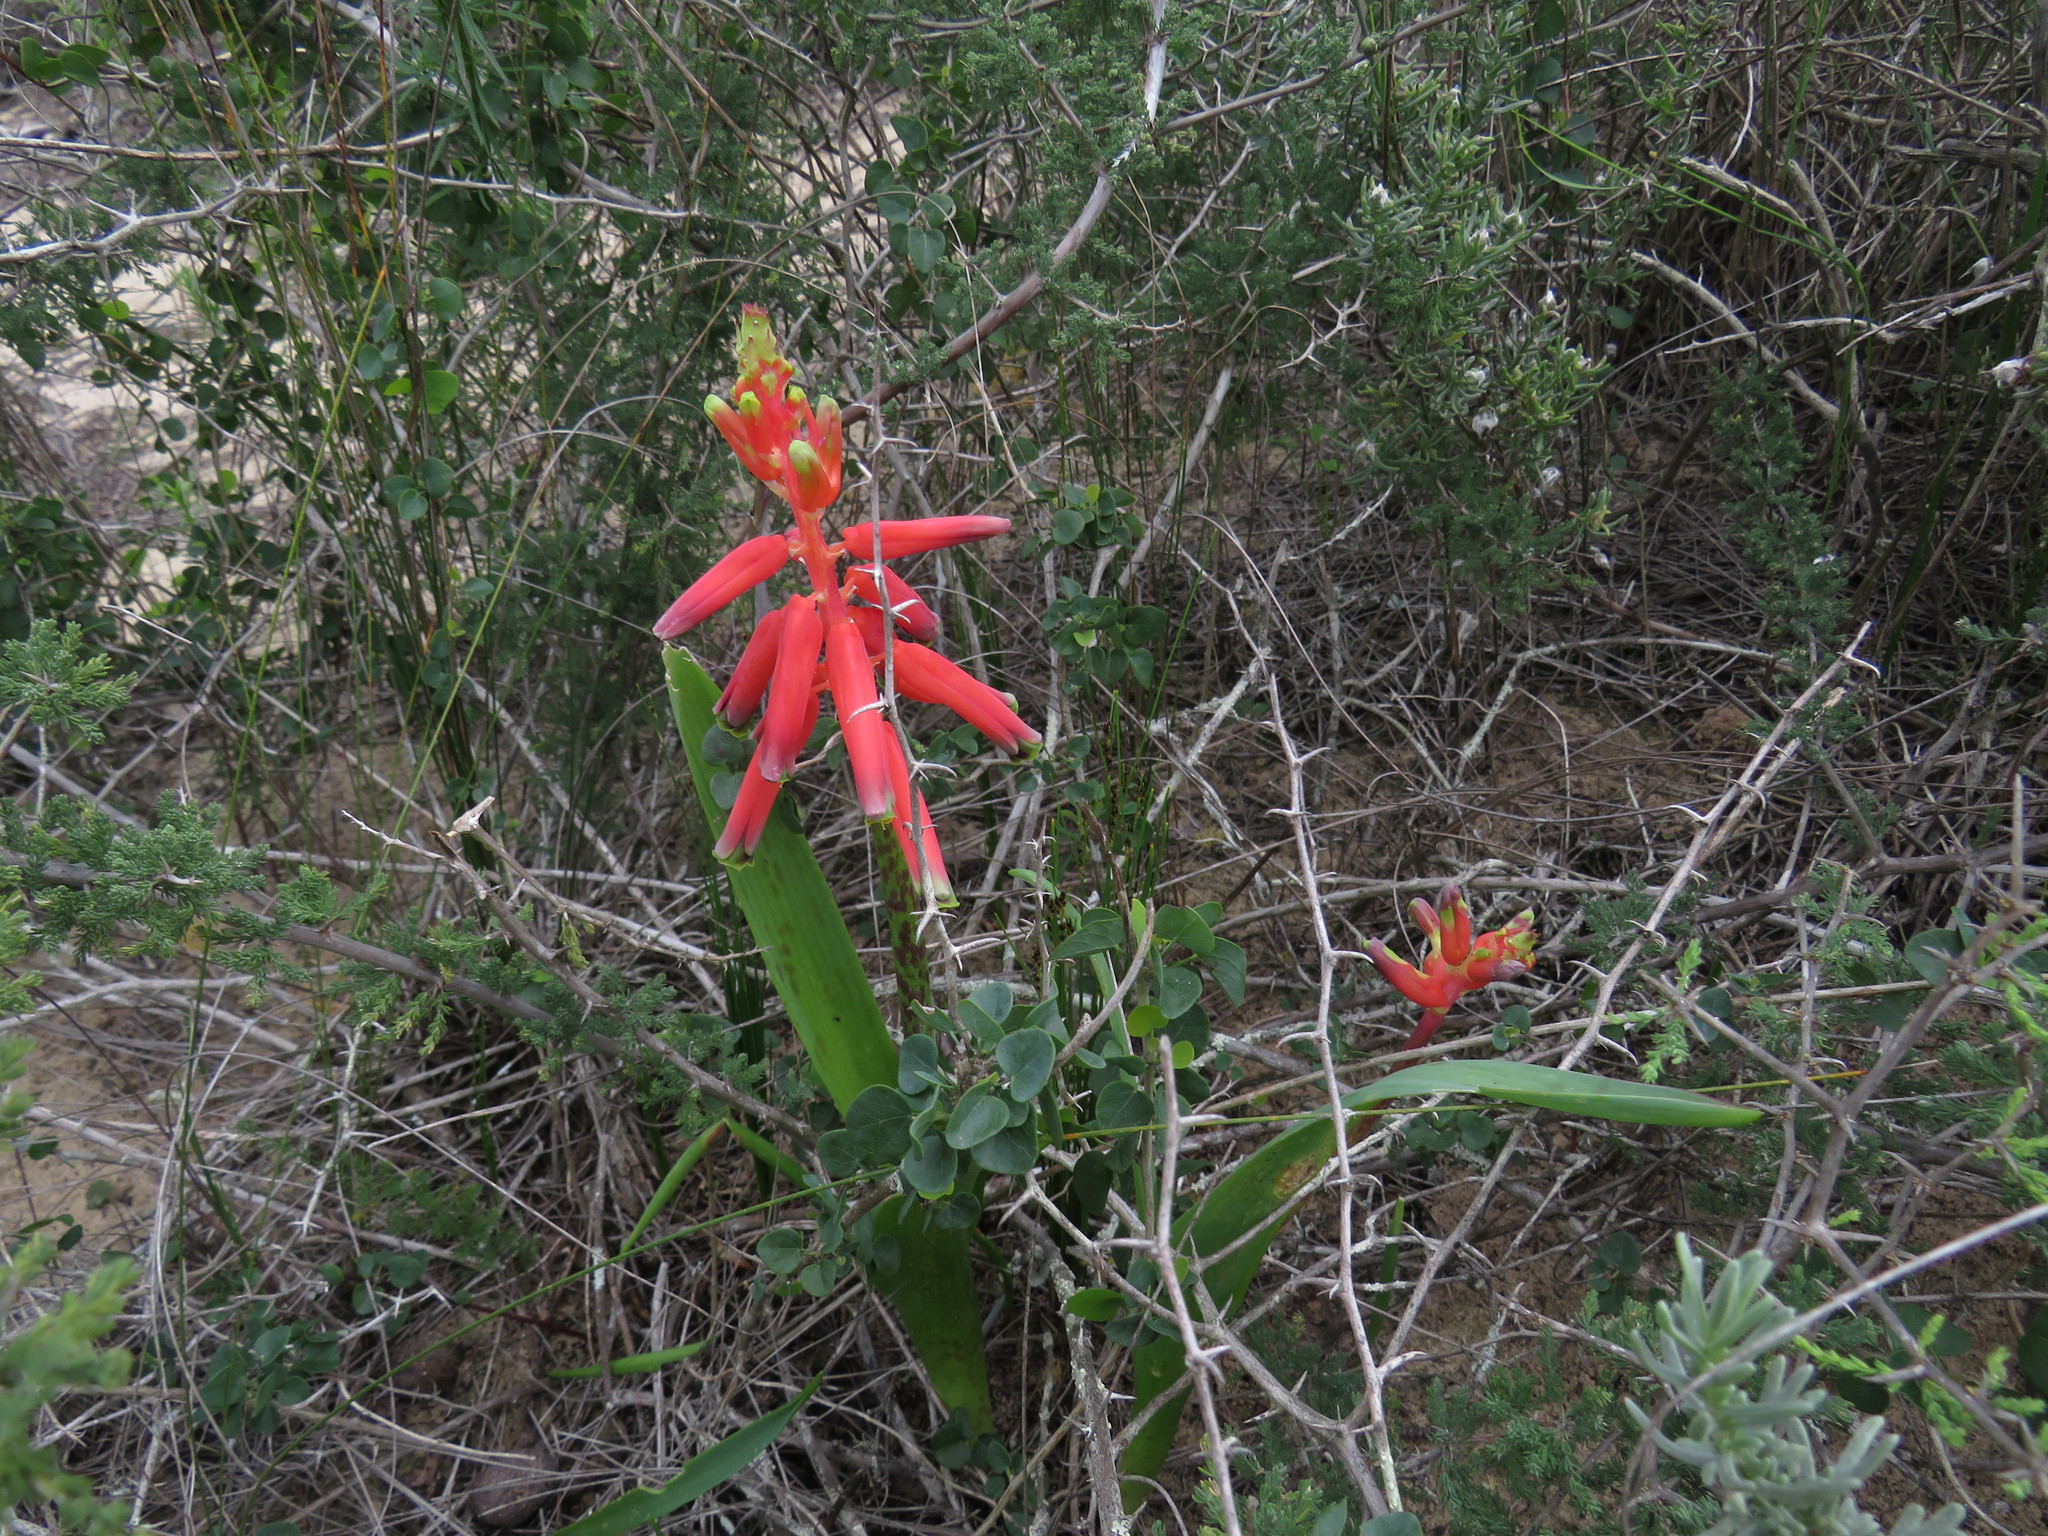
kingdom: Plantae
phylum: Tracheophyta
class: Liliopsida
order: Asparagales
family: Asparagaceae
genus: Lachenalia
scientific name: Lachenalia bulbifera
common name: Red lachenalia
